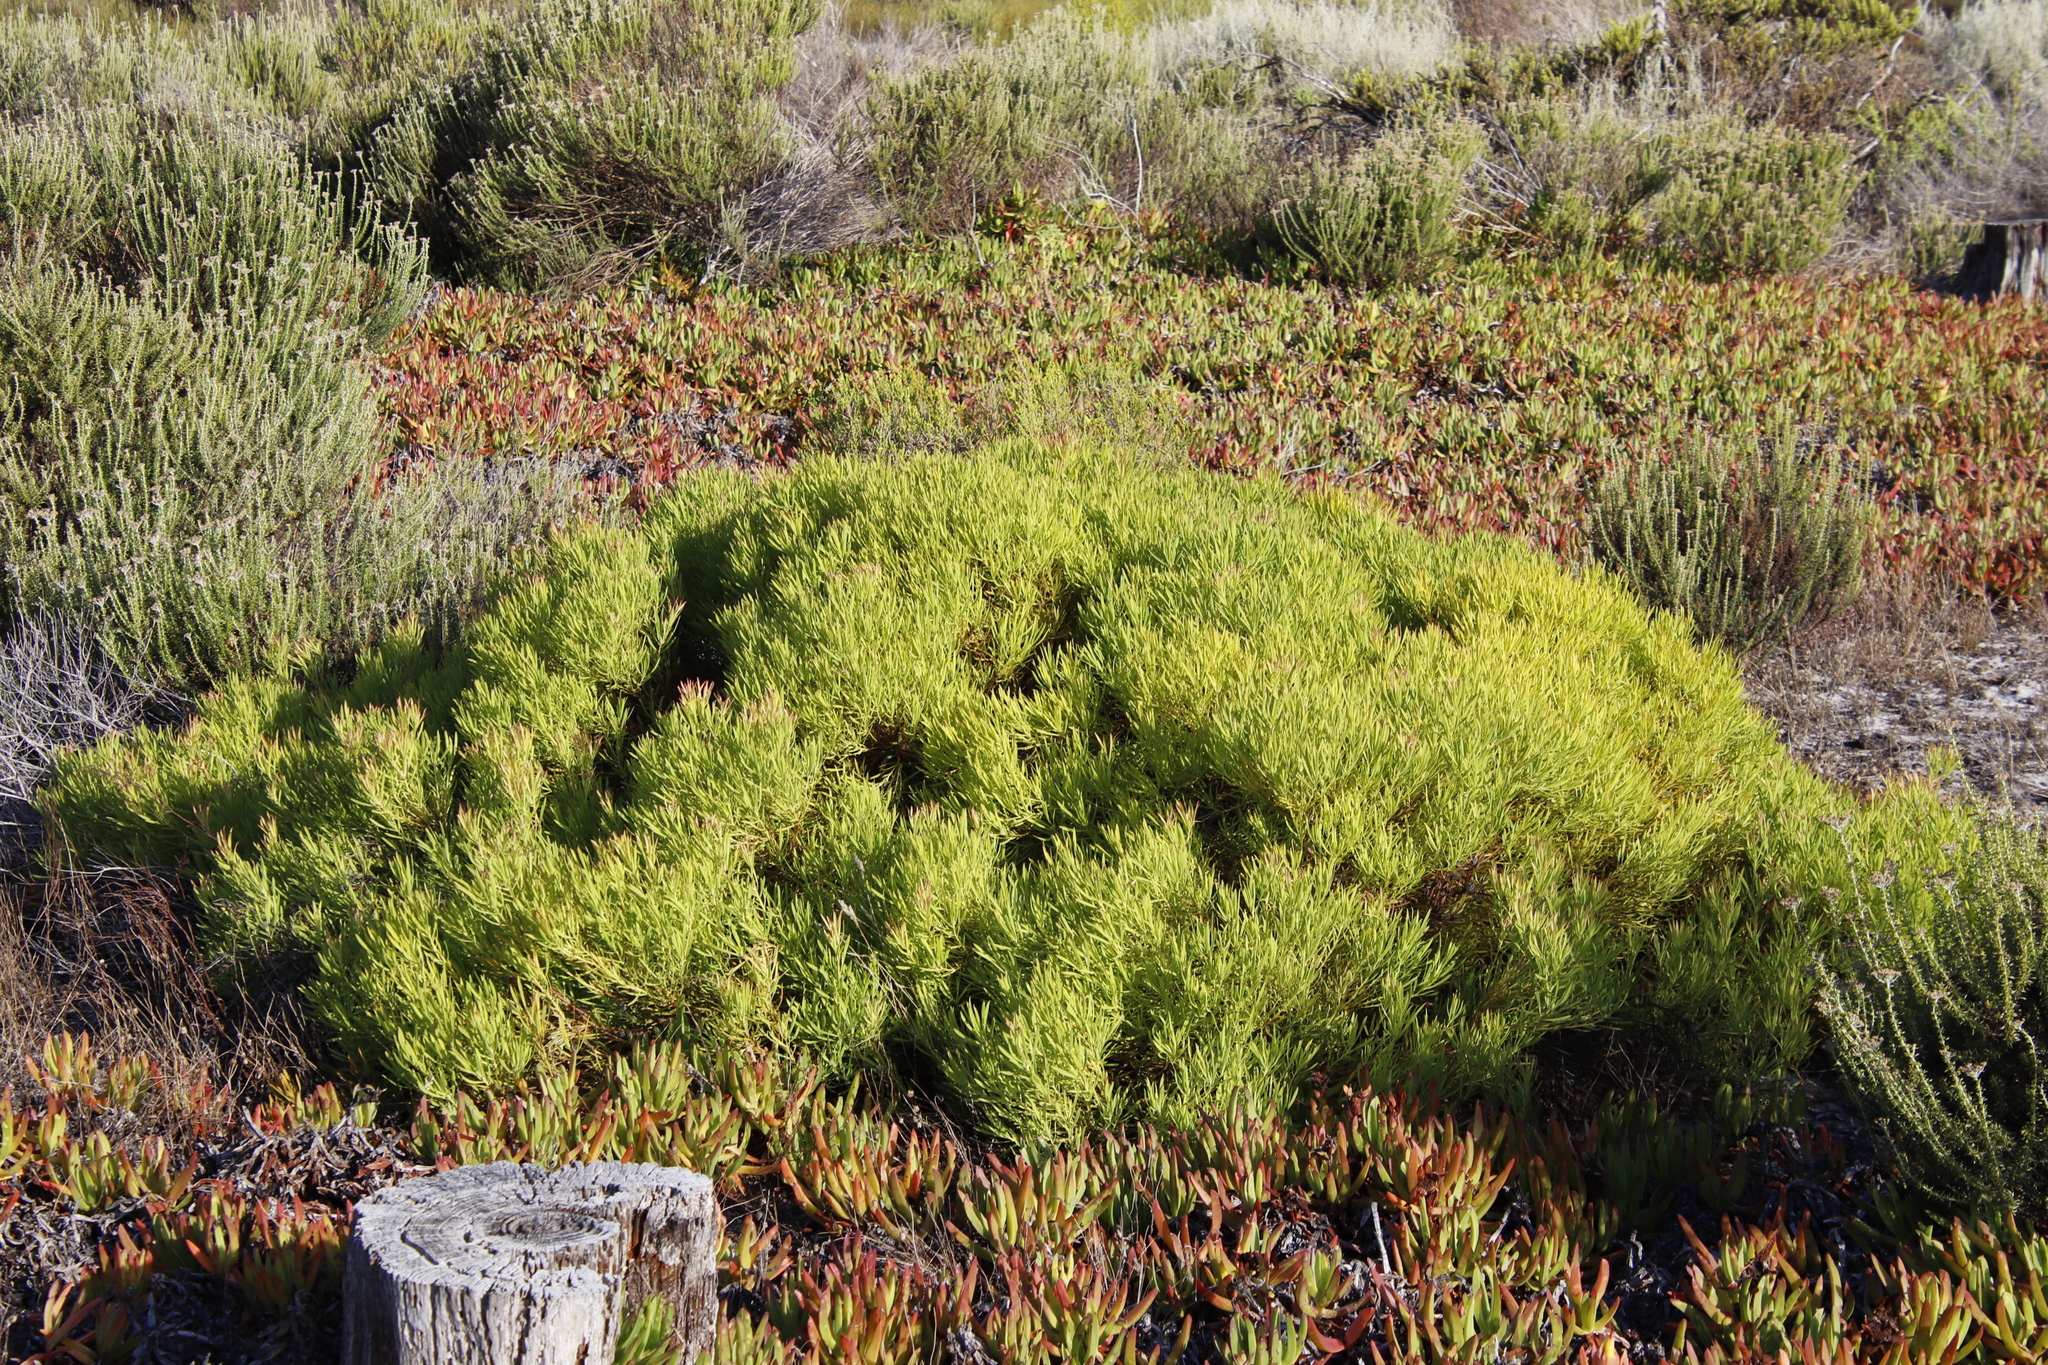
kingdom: Plantae
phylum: Tracheophyta
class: Magnoliopsida
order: Proteales
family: Proteaceae
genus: Leucadendron
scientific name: Leucadendron salignum
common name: Common sunshine conebush
